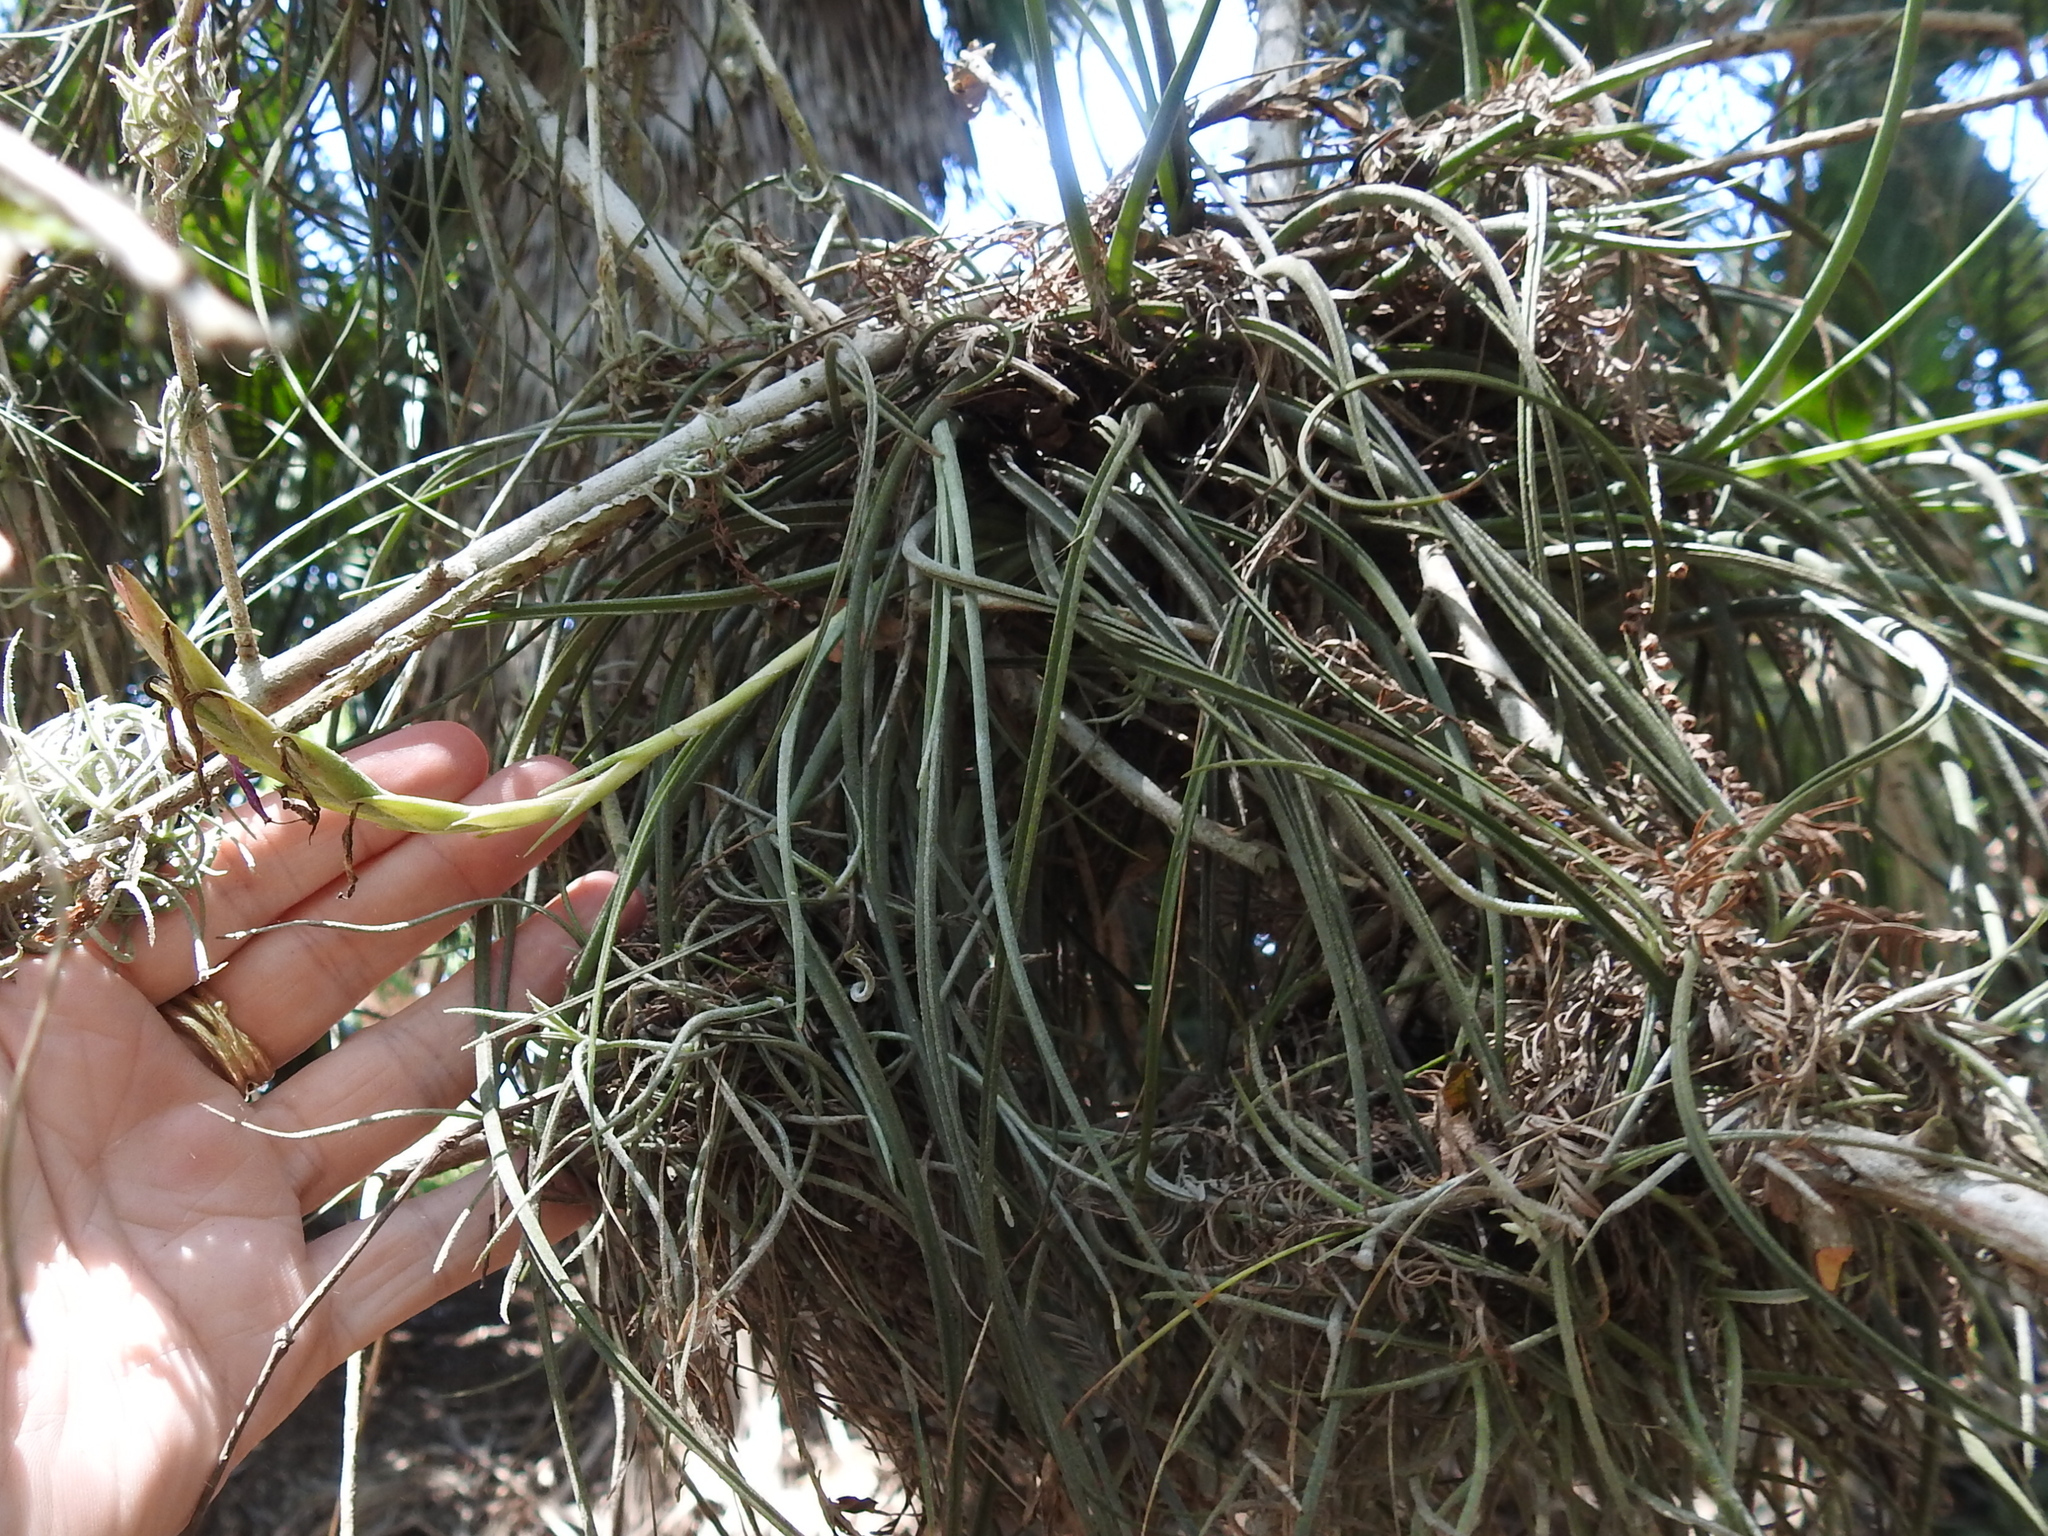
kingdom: Plantae
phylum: Tracheophyta
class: Liliopsida
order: Poales
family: Bromeliaceae
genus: Tillandsia
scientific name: Tillandsia baileyi
